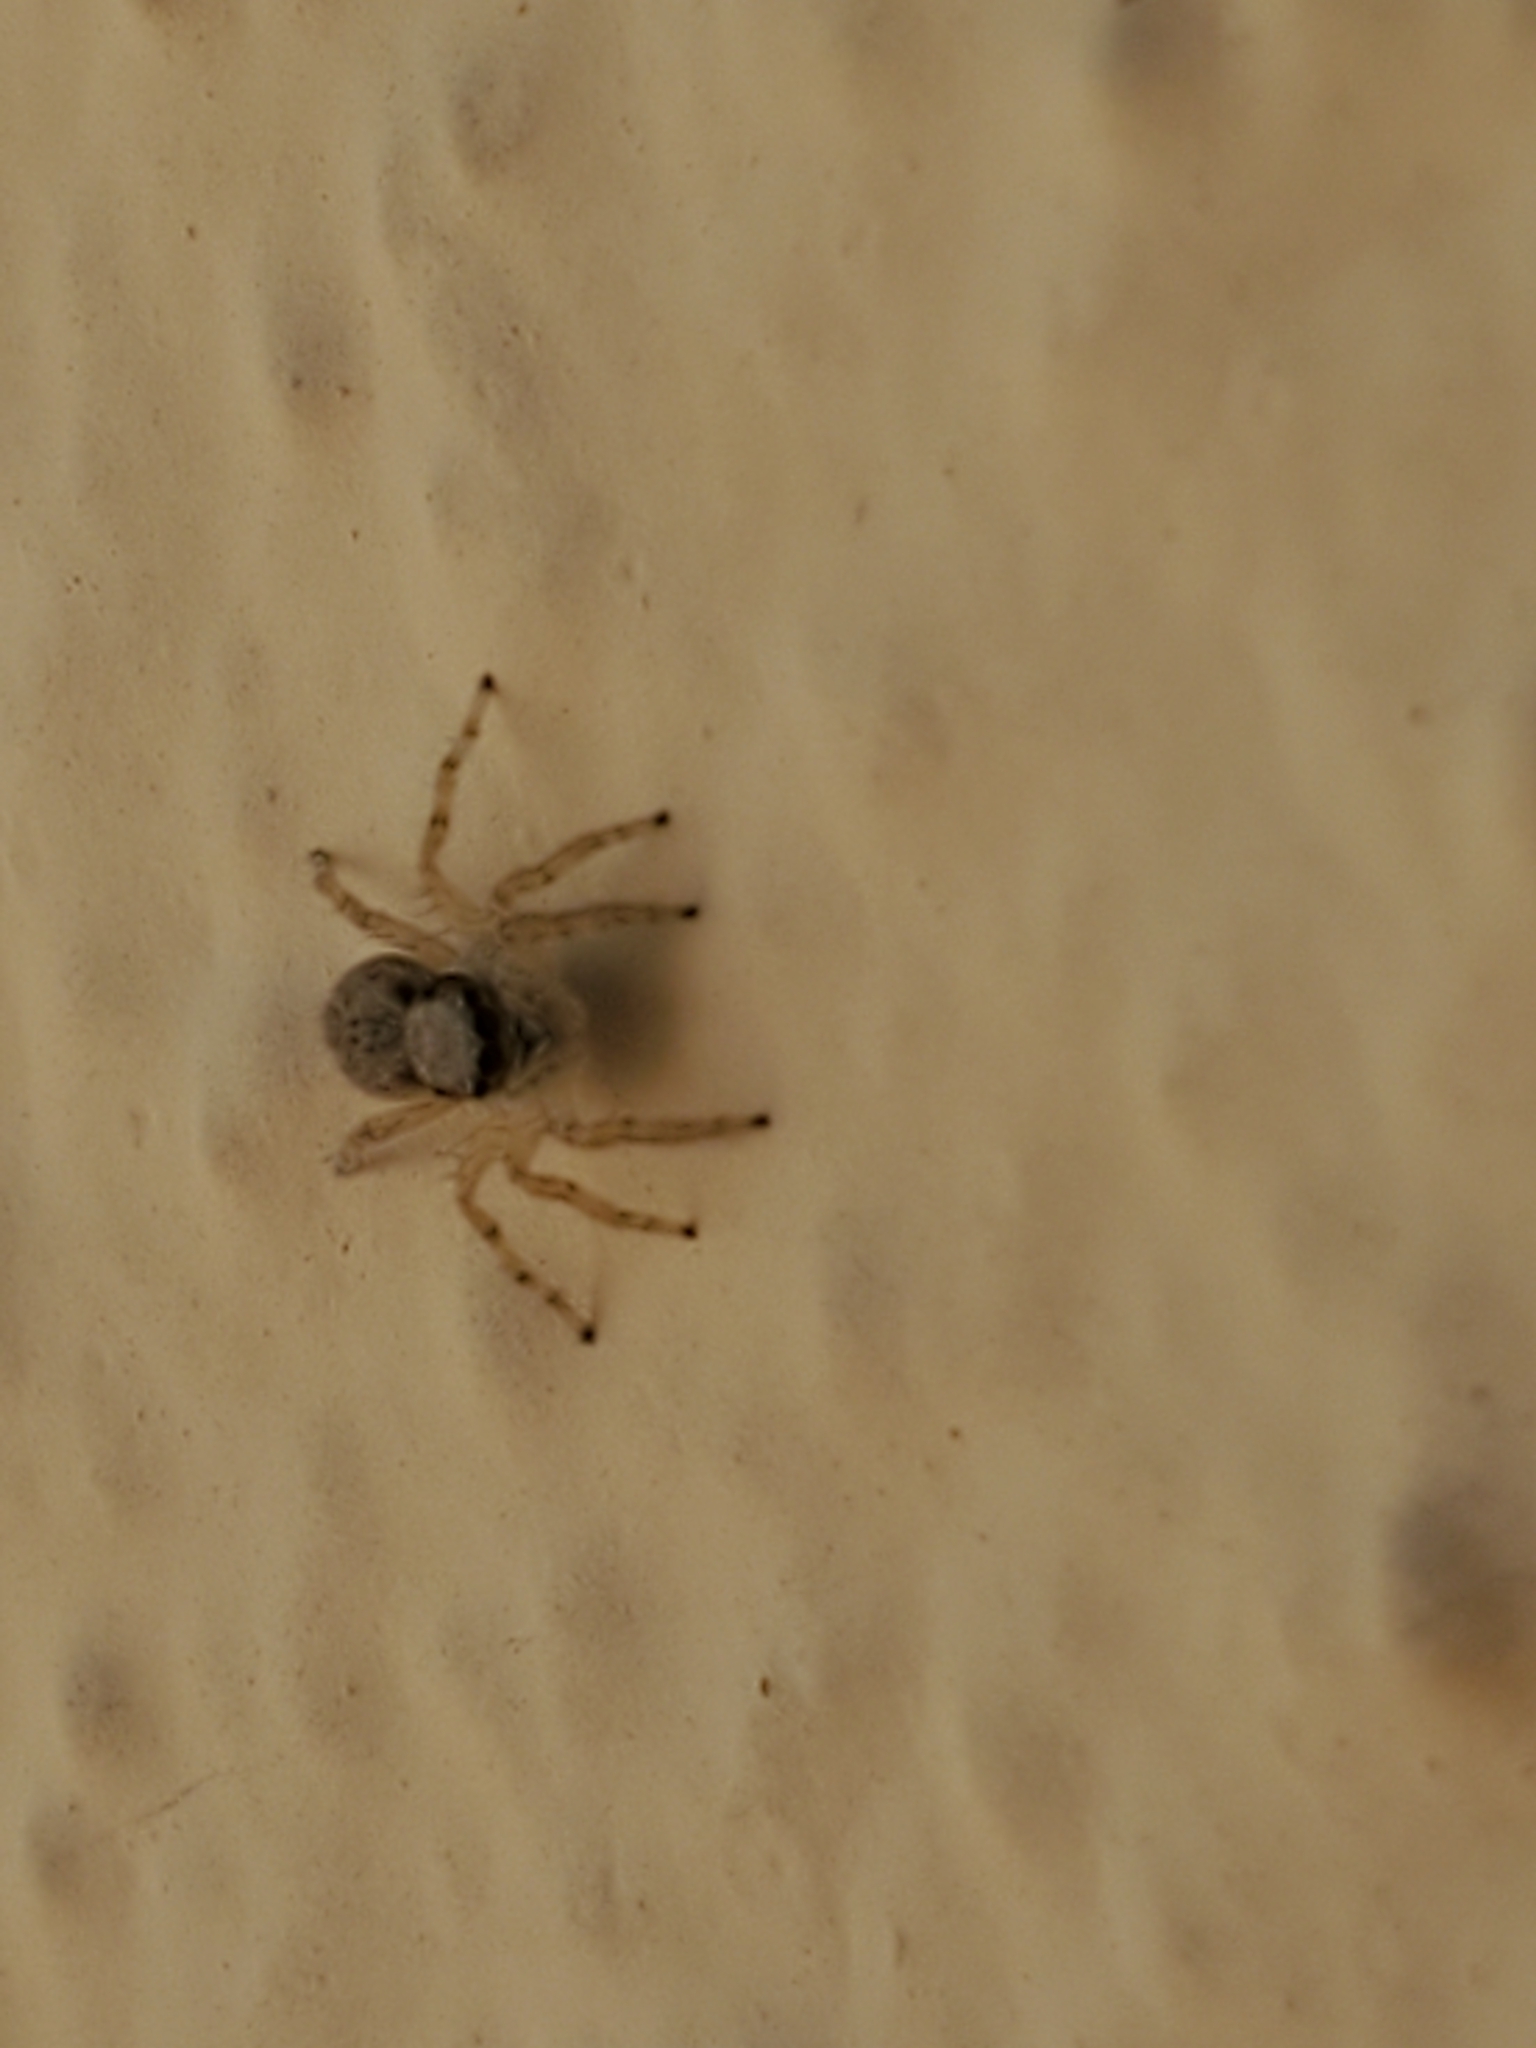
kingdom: Animalia
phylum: Arthropoda
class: Arachnida
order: Araneae
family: Salticidae
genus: Menemerus
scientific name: Menemerus bivittatus
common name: Gray wall jumper
